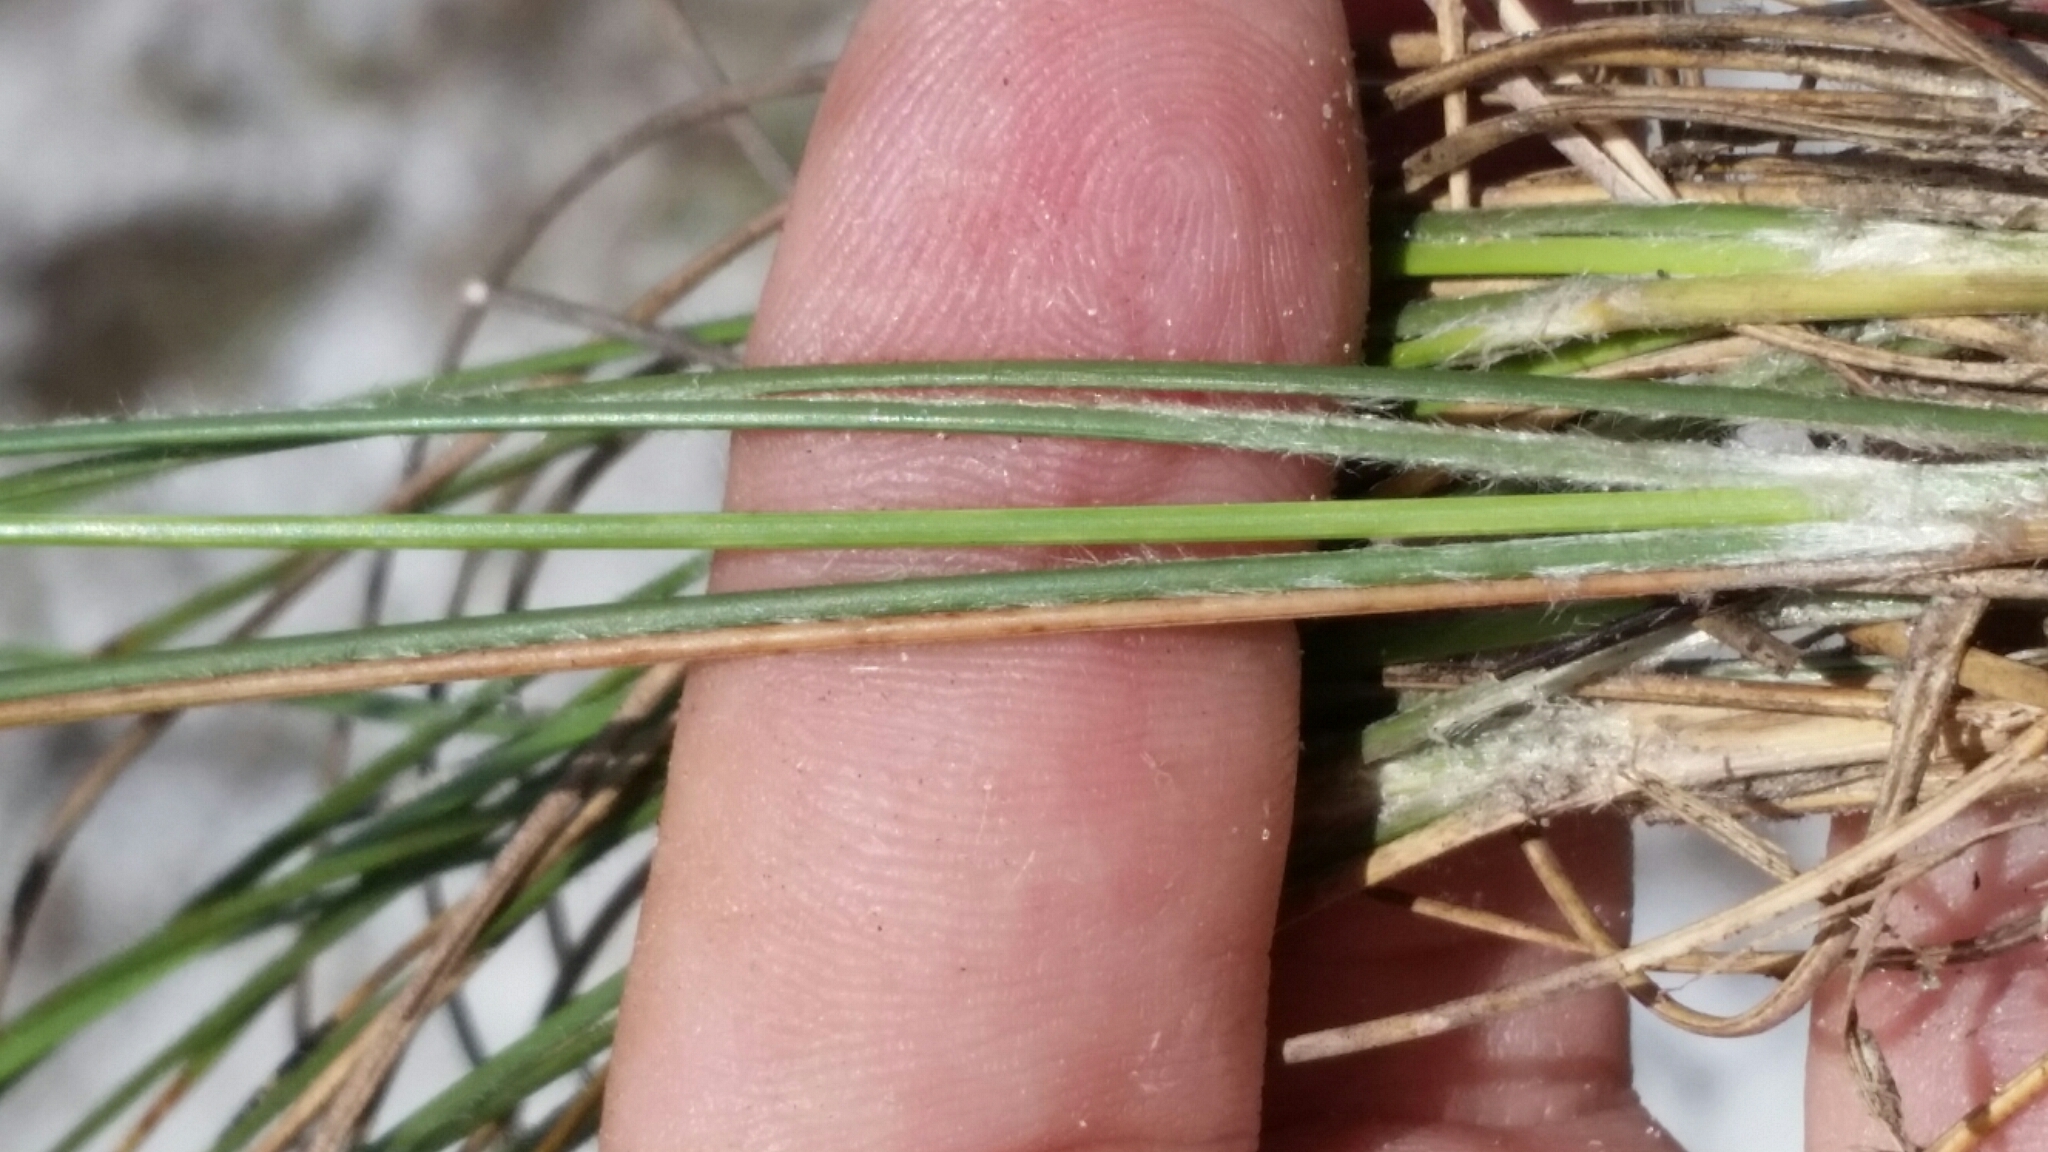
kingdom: Plantae
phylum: Tracheophyta
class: Liliopsida
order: Poales
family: Poaceae
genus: Aristida
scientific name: Aristida beyrichiana
